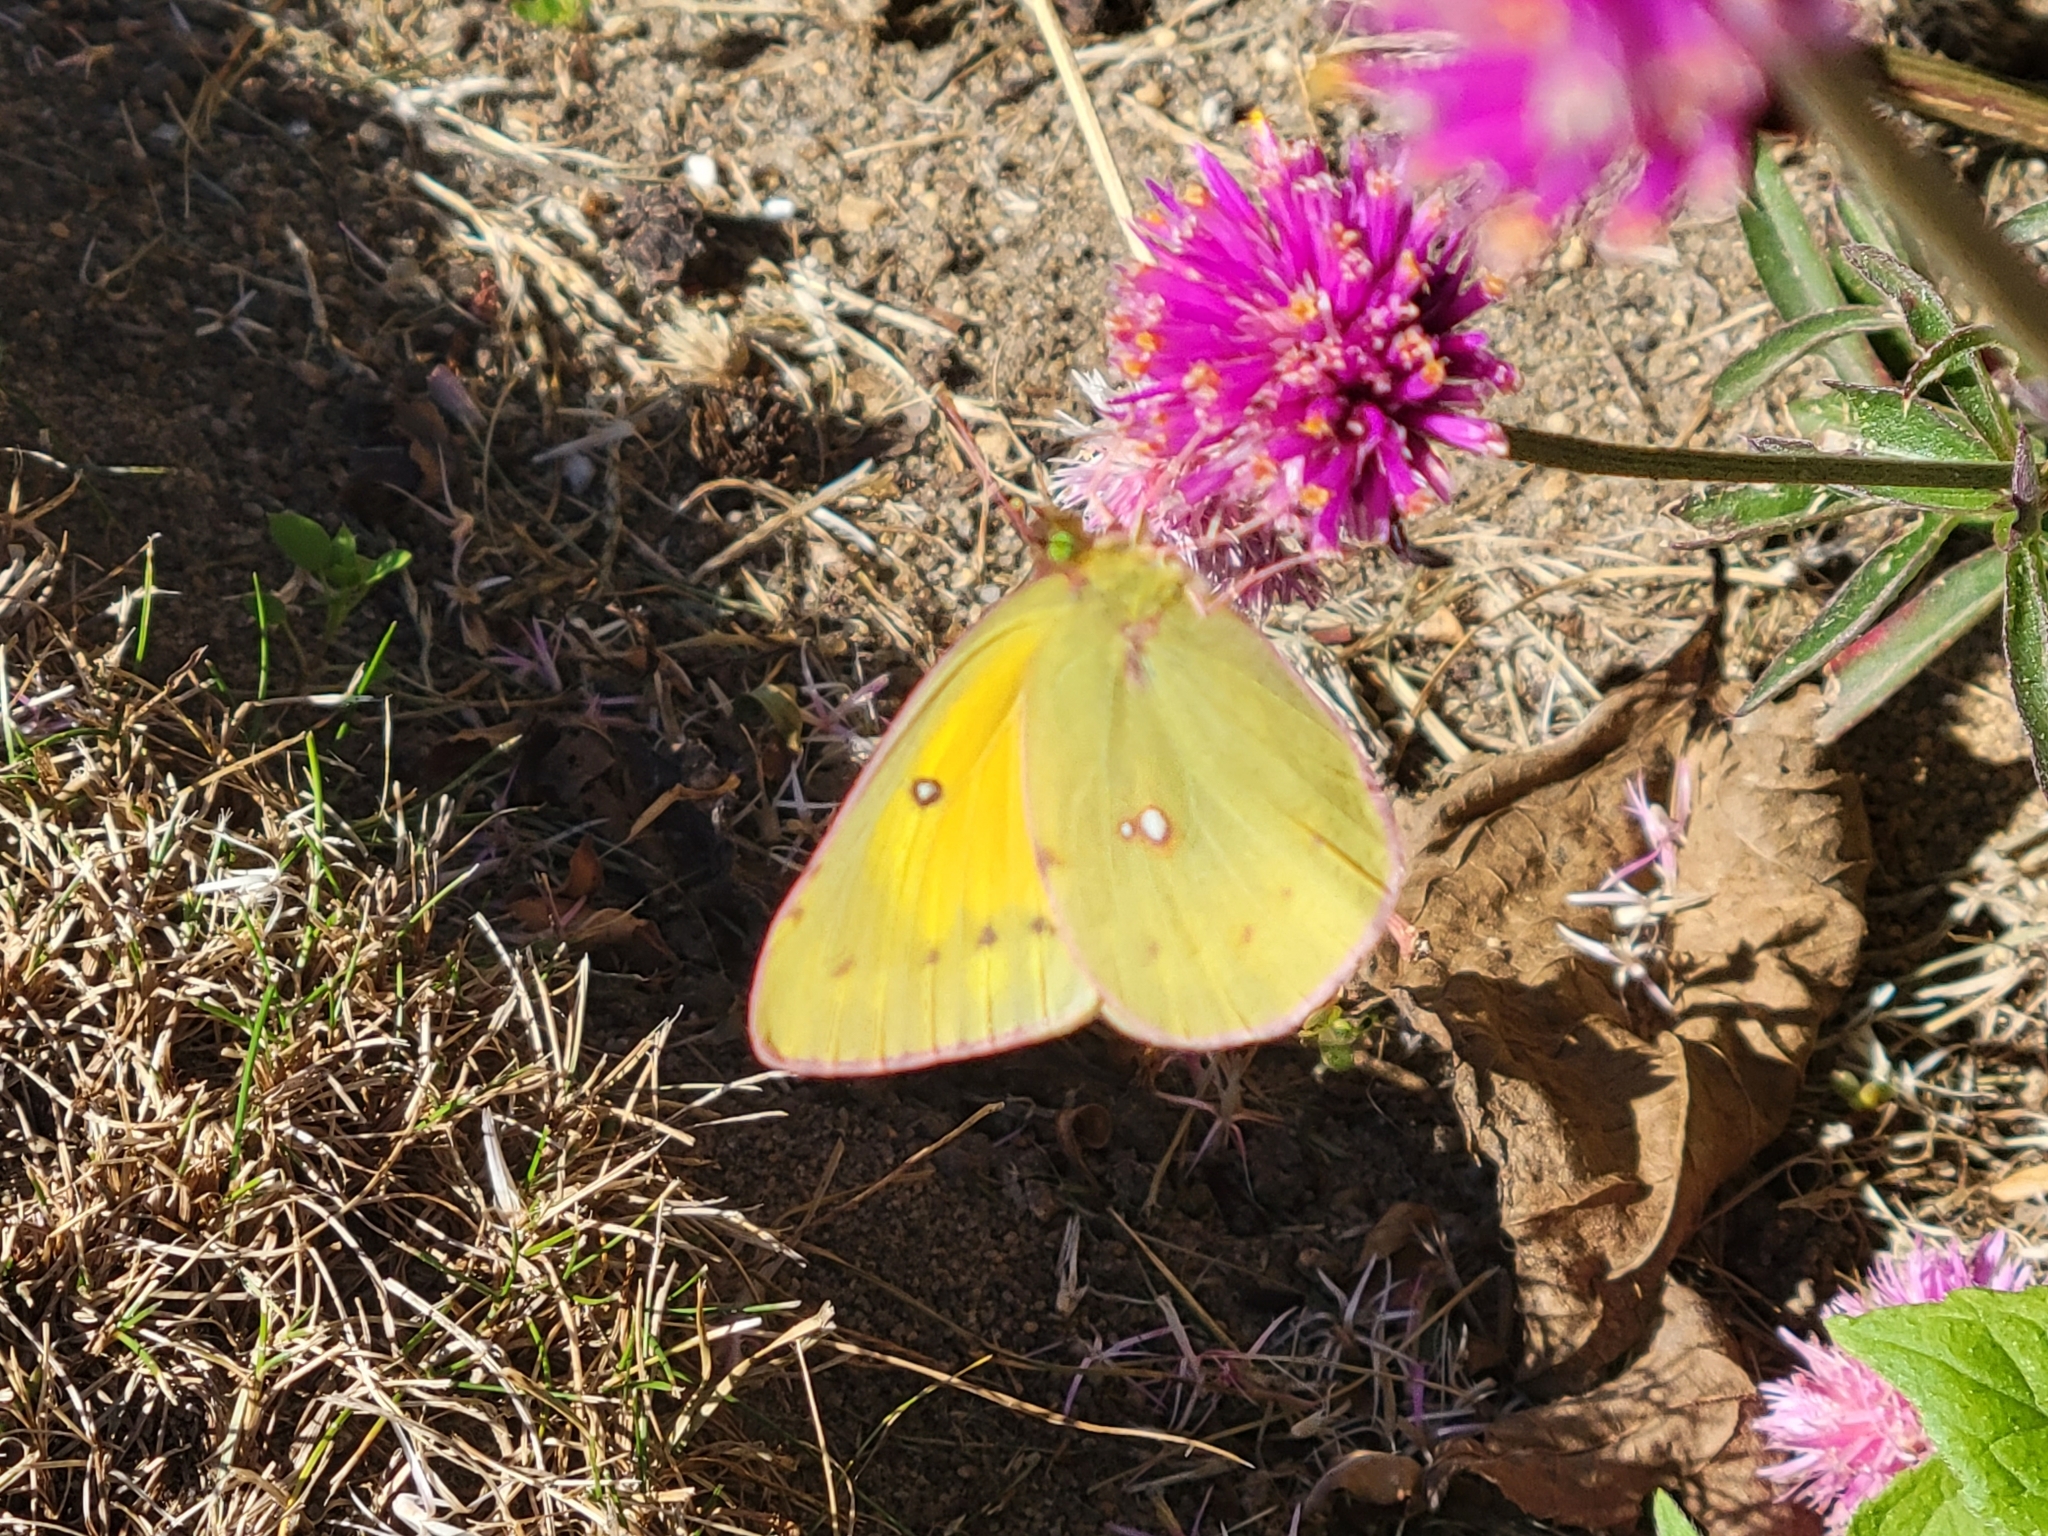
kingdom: Animalia
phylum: Arthropoda
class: Insecta
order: Lepidoptera
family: Pieridae
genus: Colias
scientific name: Colias eurytheme
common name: Alfalfa butterfly
